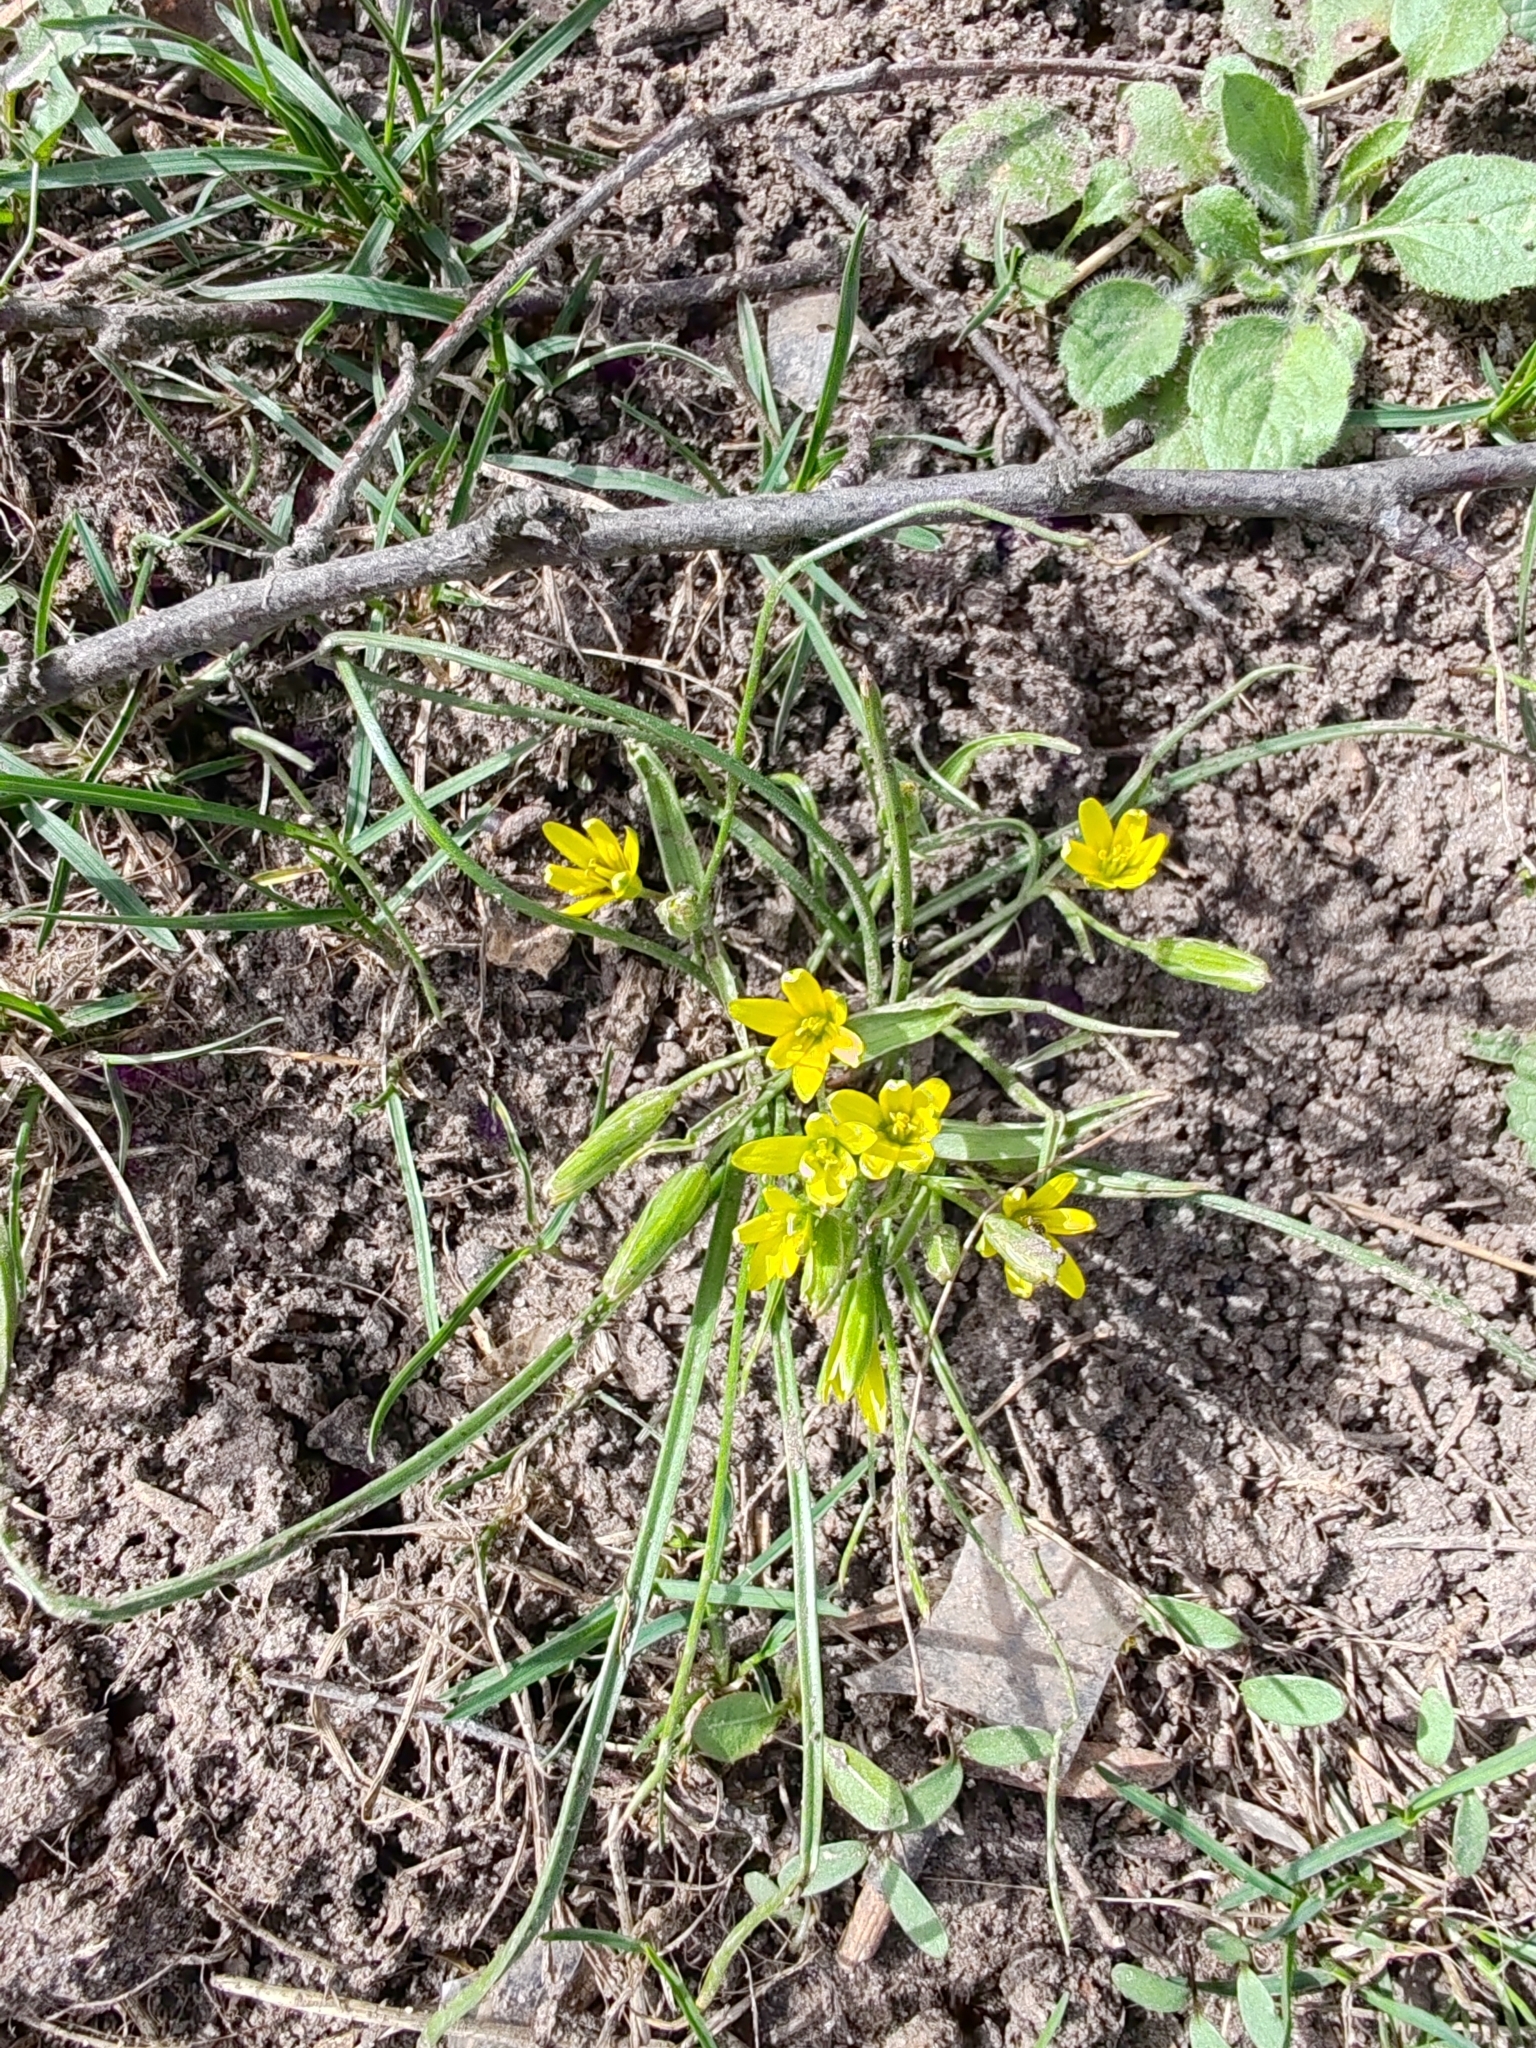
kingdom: Plantae
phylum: Tracheophyta
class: Liliopsida
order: Liliales
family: Liliaceae
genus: Gagea
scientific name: Gagea pusilla
